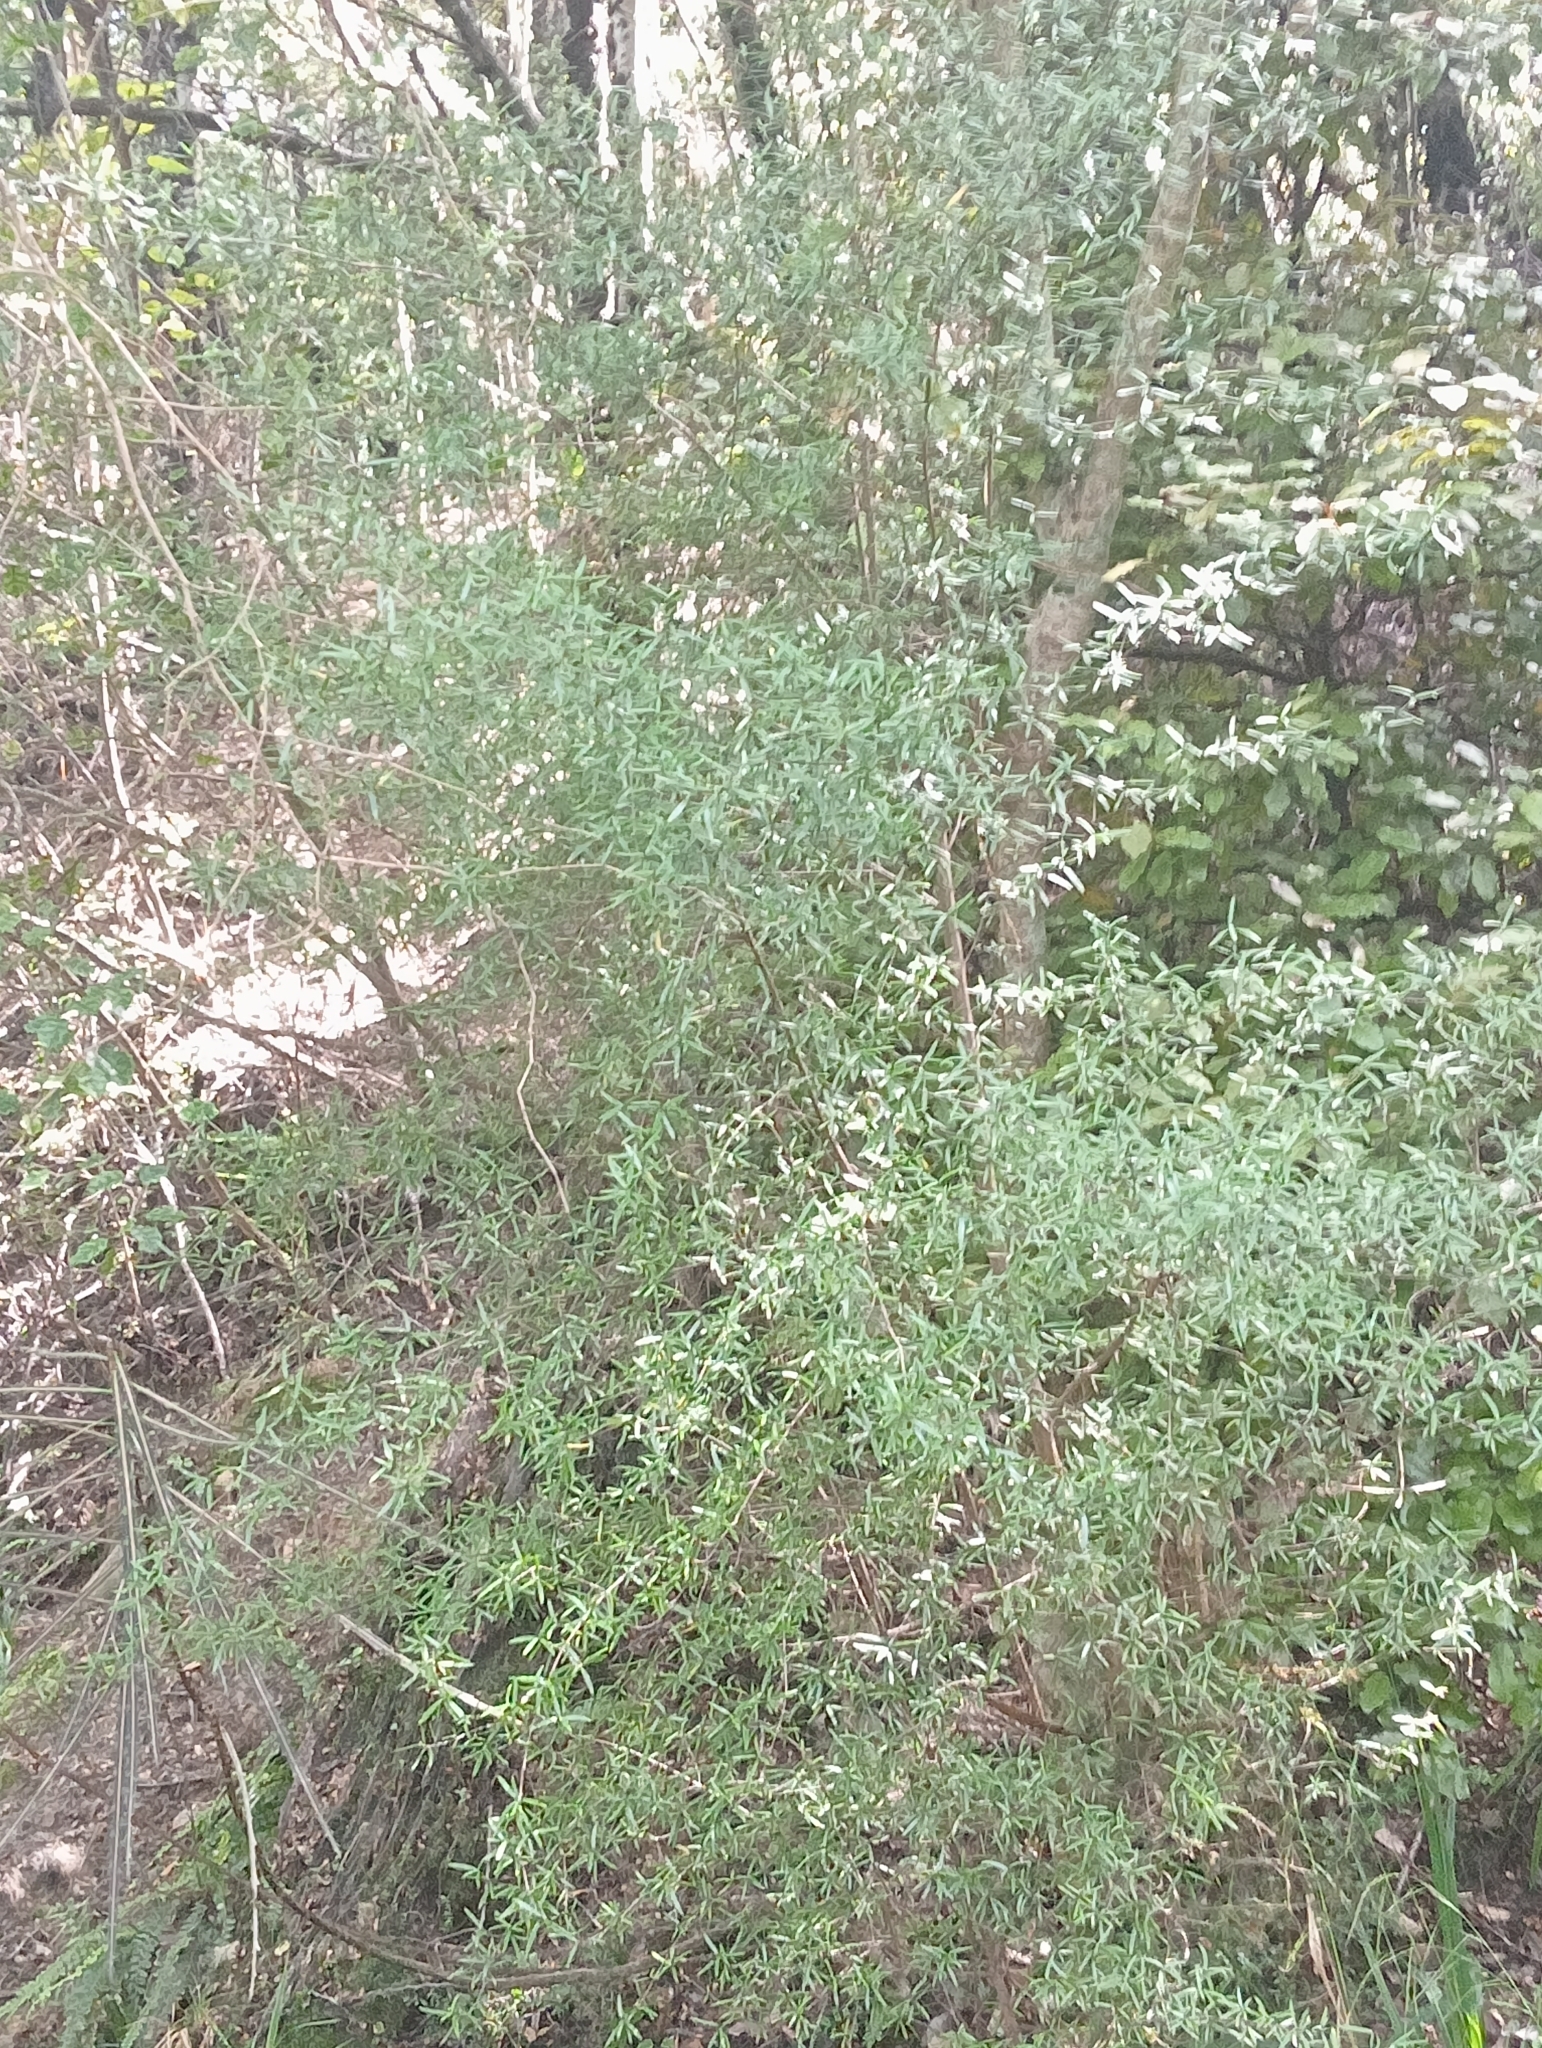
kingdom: Plantae
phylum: Tracheophyta
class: Magnoliopsida
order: Gentianales
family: Rubiaceae
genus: Coprosma
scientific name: Coprosma linariifolia
